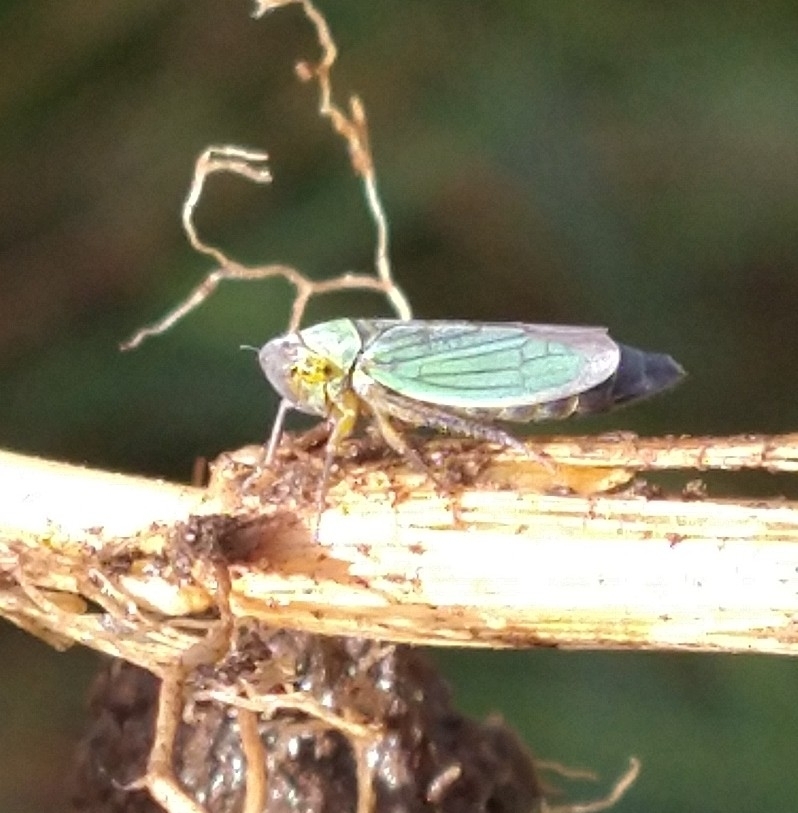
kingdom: Animalia
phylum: Arthropoda
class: Insecta
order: Hemiptera
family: Cicadellidae
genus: Cicadella
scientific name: Cicadella viridis
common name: Leafhopper
